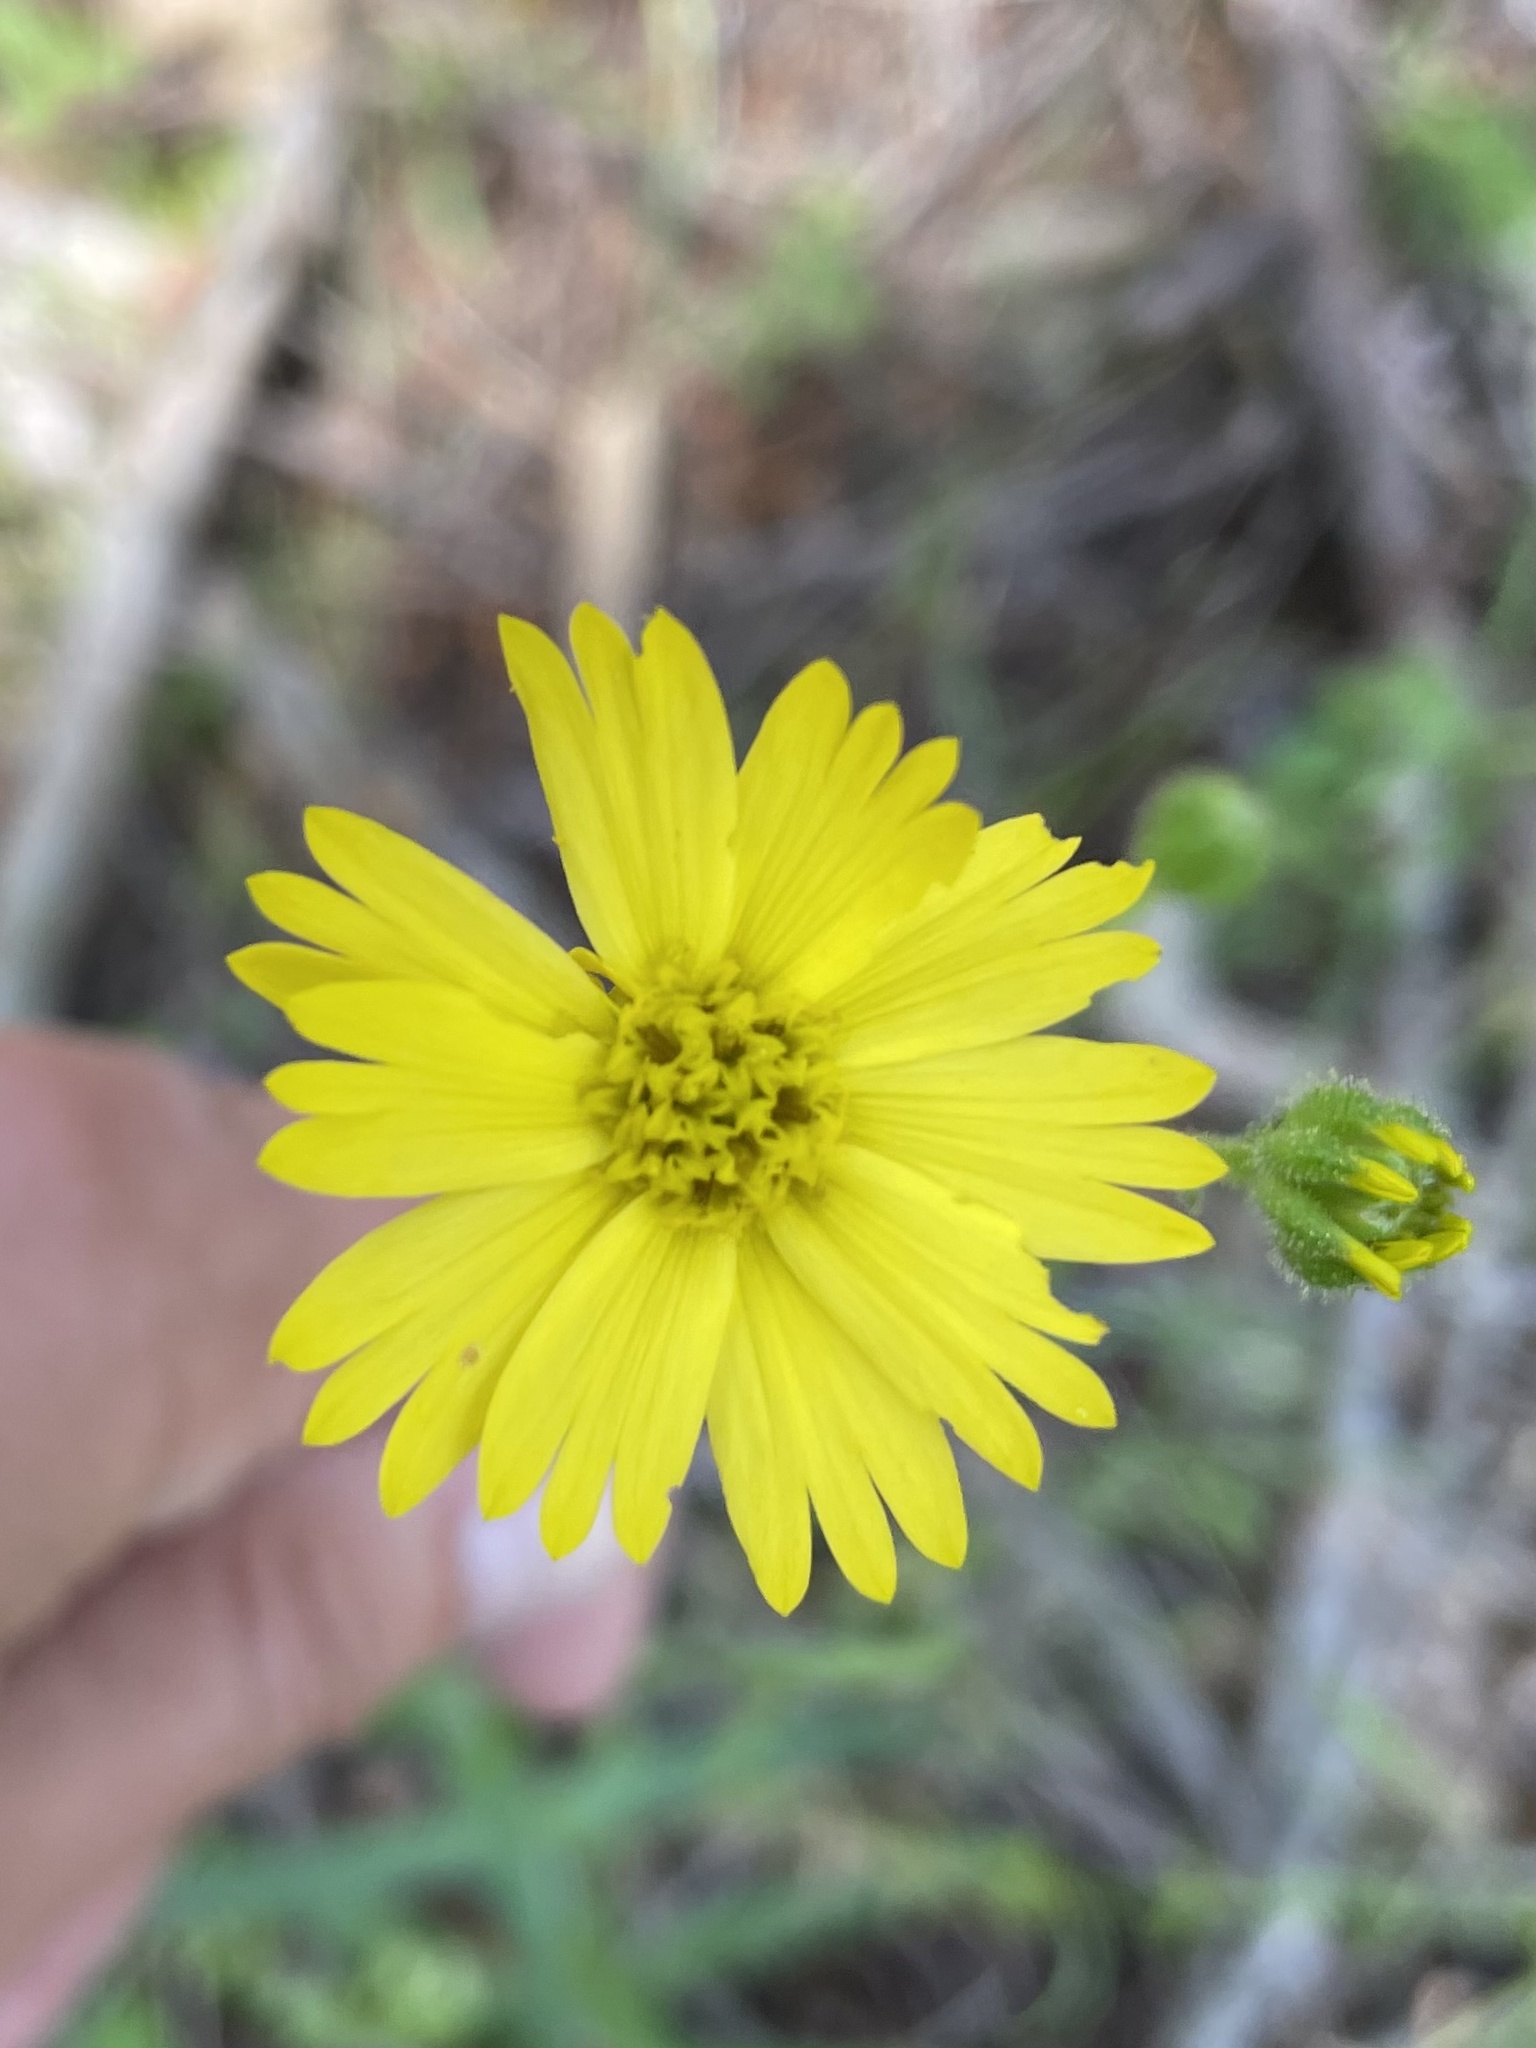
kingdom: Plantae
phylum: Tracheophyta
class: Magnoliopsida
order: Asterales
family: Asteraceae
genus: Anisocarpus
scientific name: Anisocarpus madioides
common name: Woodland madia
